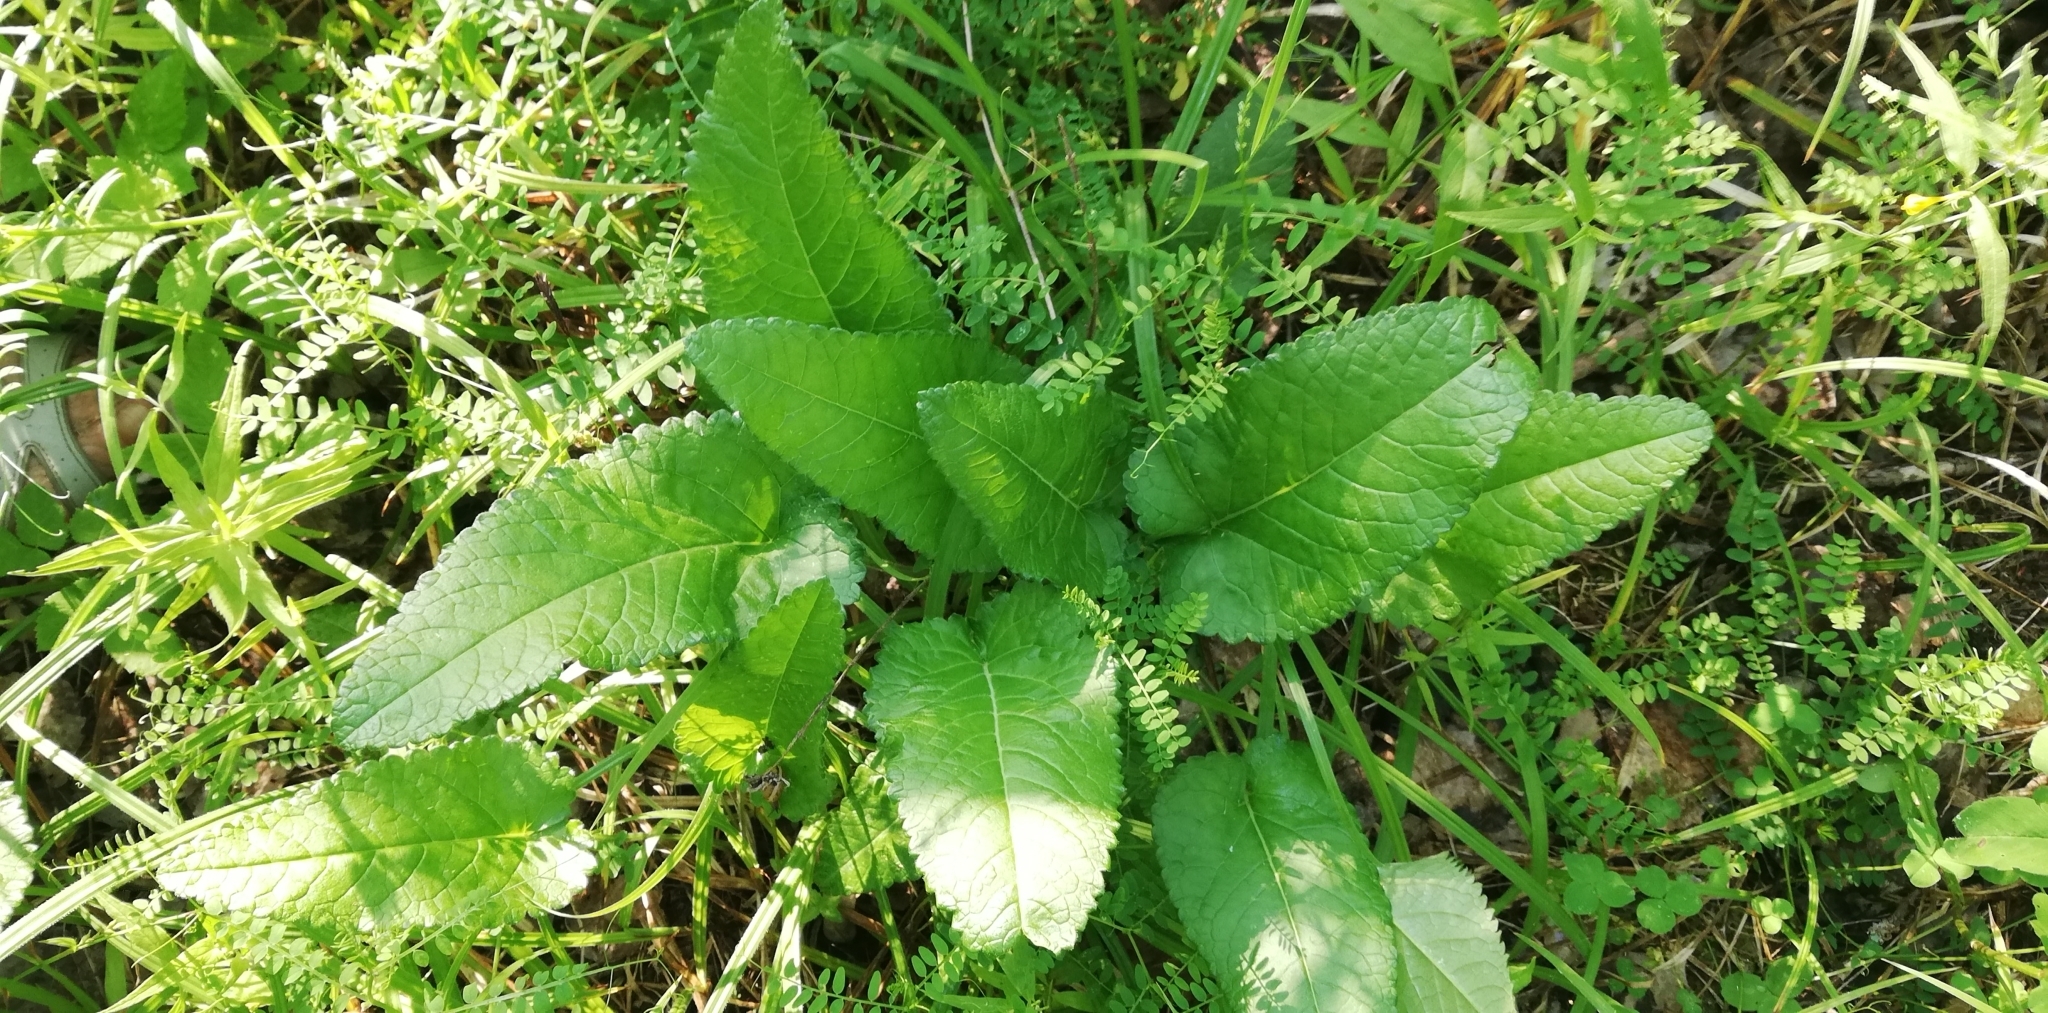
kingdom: Plantae
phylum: Tracheophyta
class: Magnoliopsida
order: Lamiales
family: Lamiaceae
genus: Betonica
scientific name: Betonica officinalis
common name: Bishop's-wort
